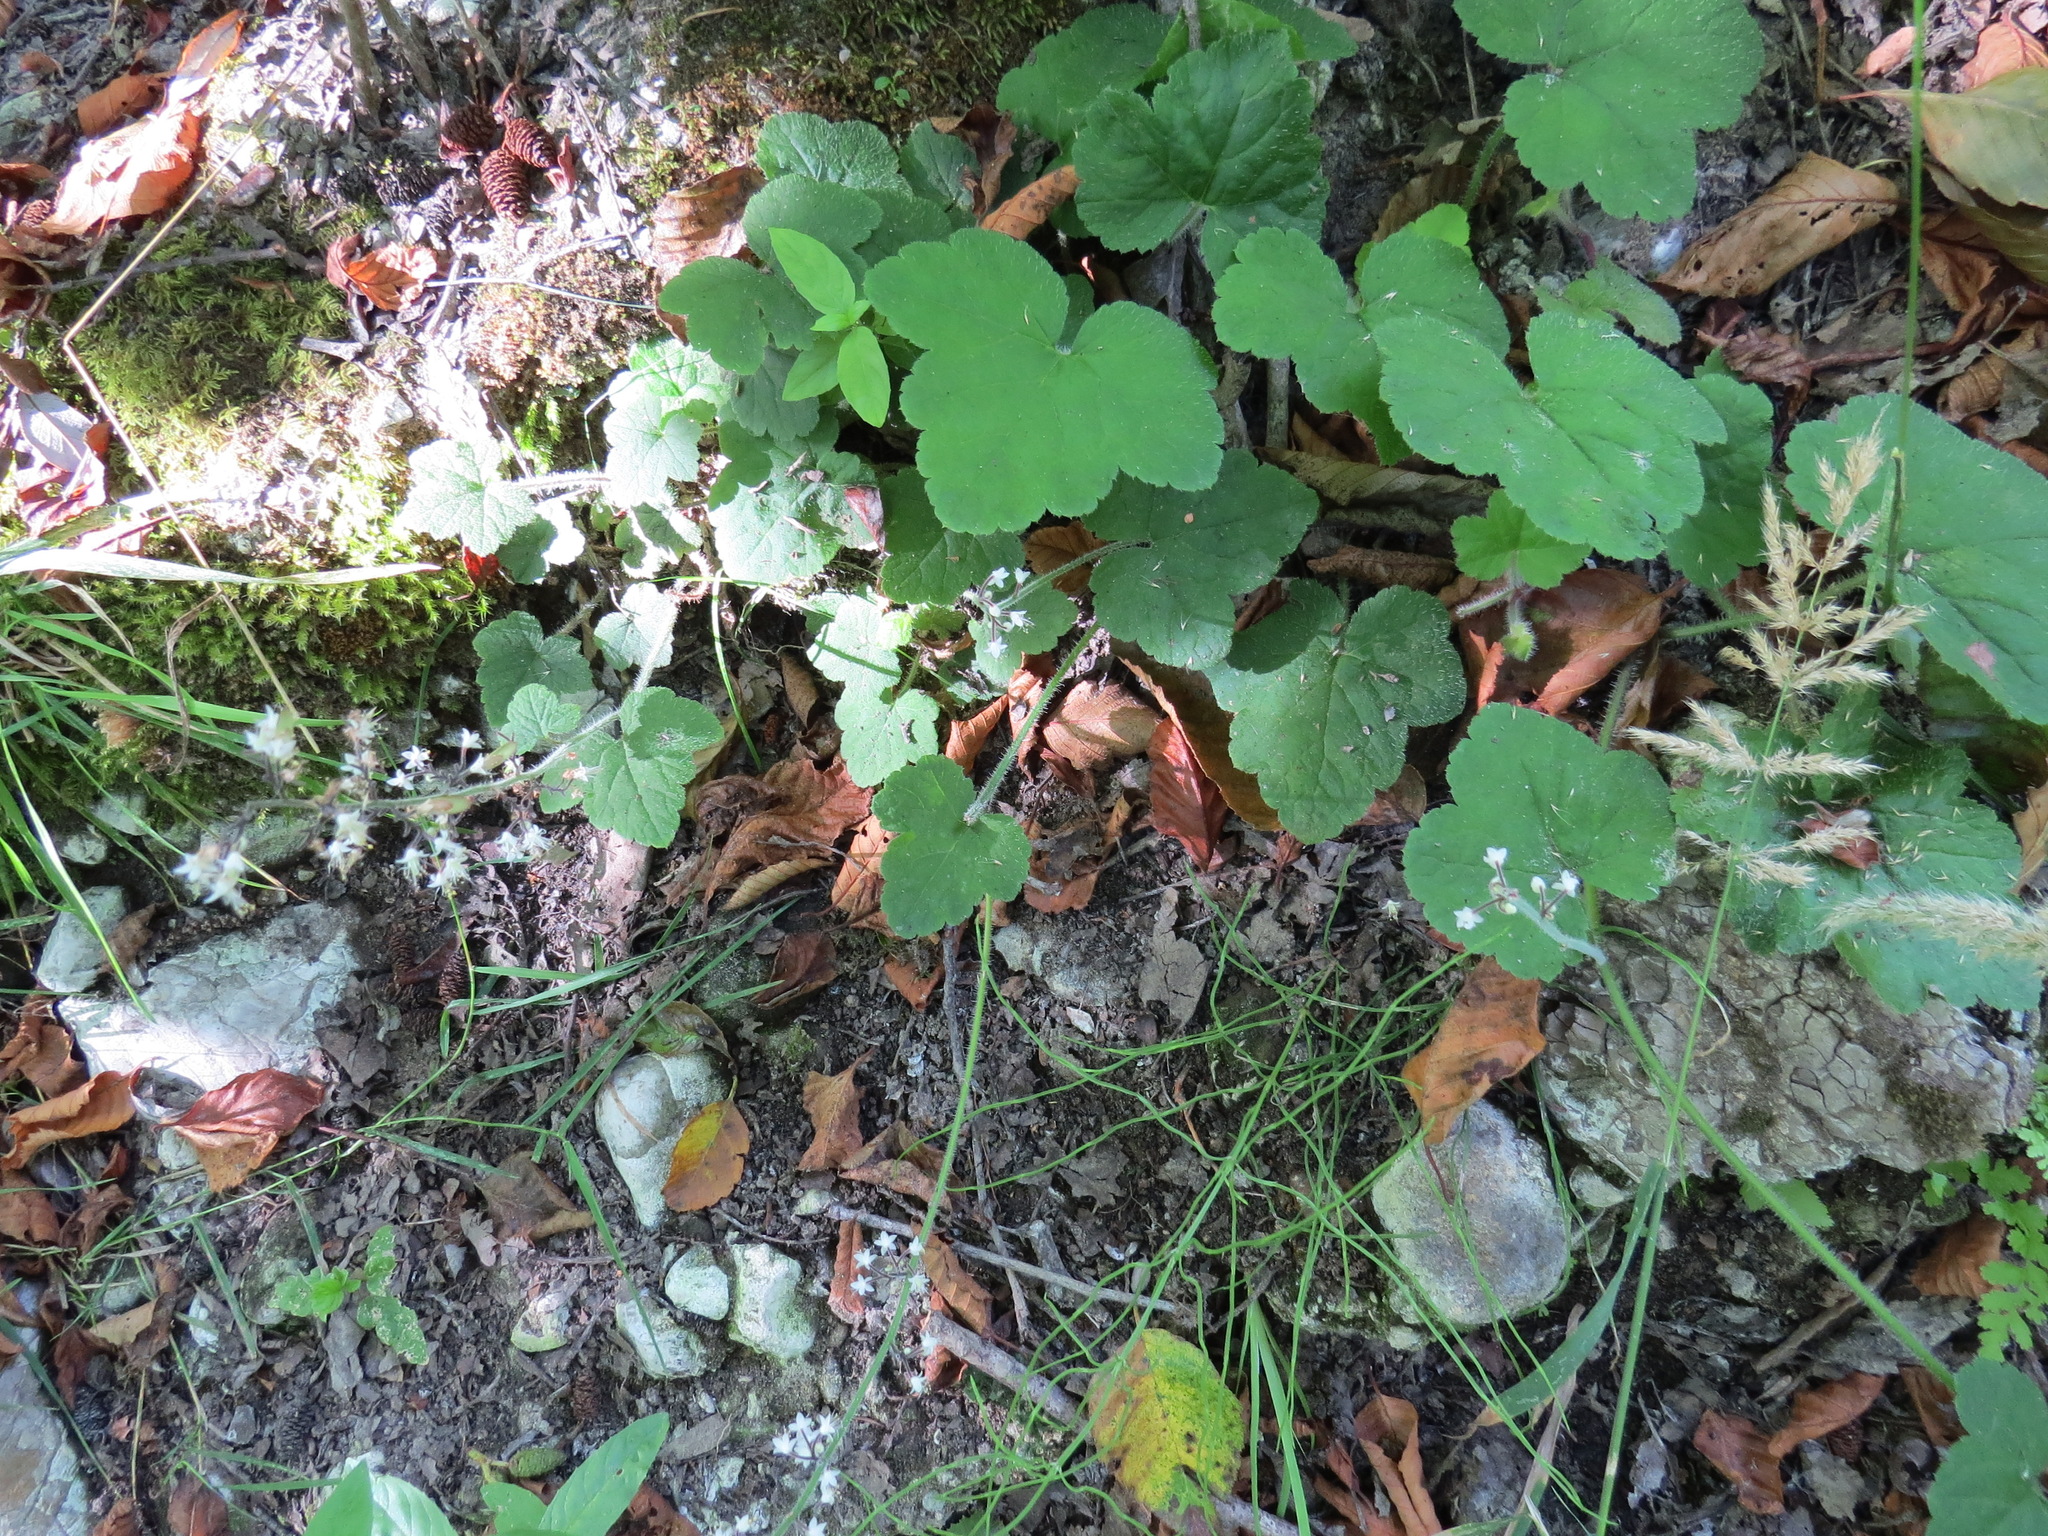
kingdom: Plantae
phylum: Tracheophyta
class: Magnoliopsida
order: Saxifragales
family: Saxifragaceae
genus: Tiarella
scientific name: Tiarella trifoliata
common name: Sugar-scoop
